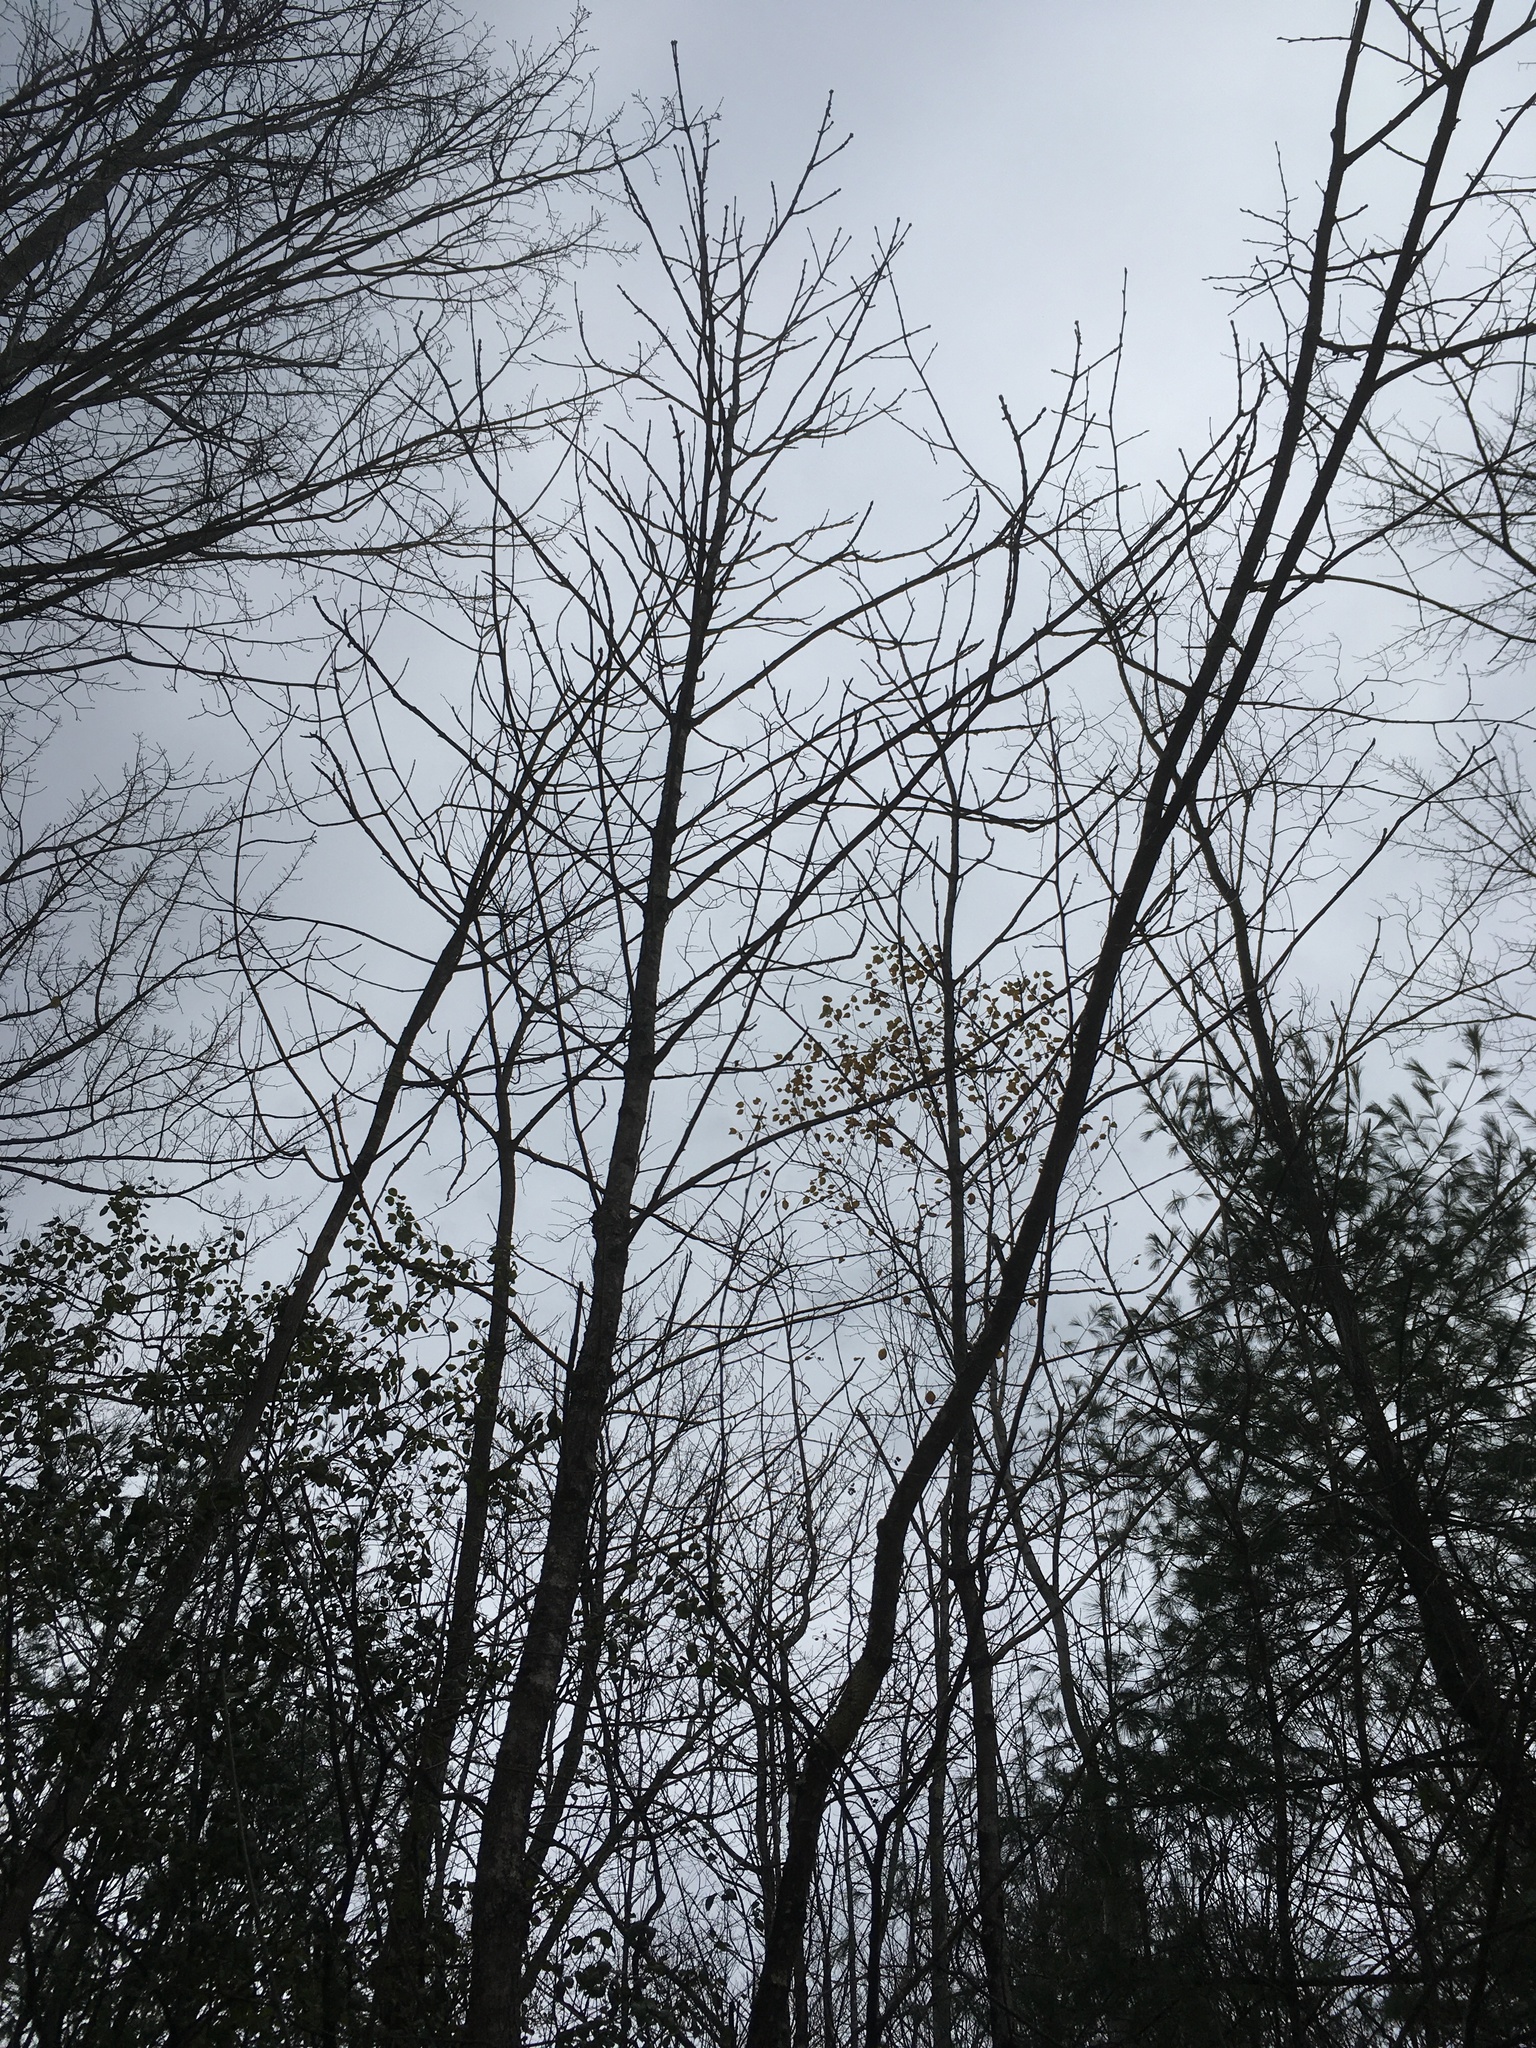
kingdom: Plantae
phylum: Tracheophyta
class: Magnoliopsida
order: Lamiales
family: Oleaceae
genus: Fraxinus
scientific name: Fraxinus nigra
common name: Black ash
